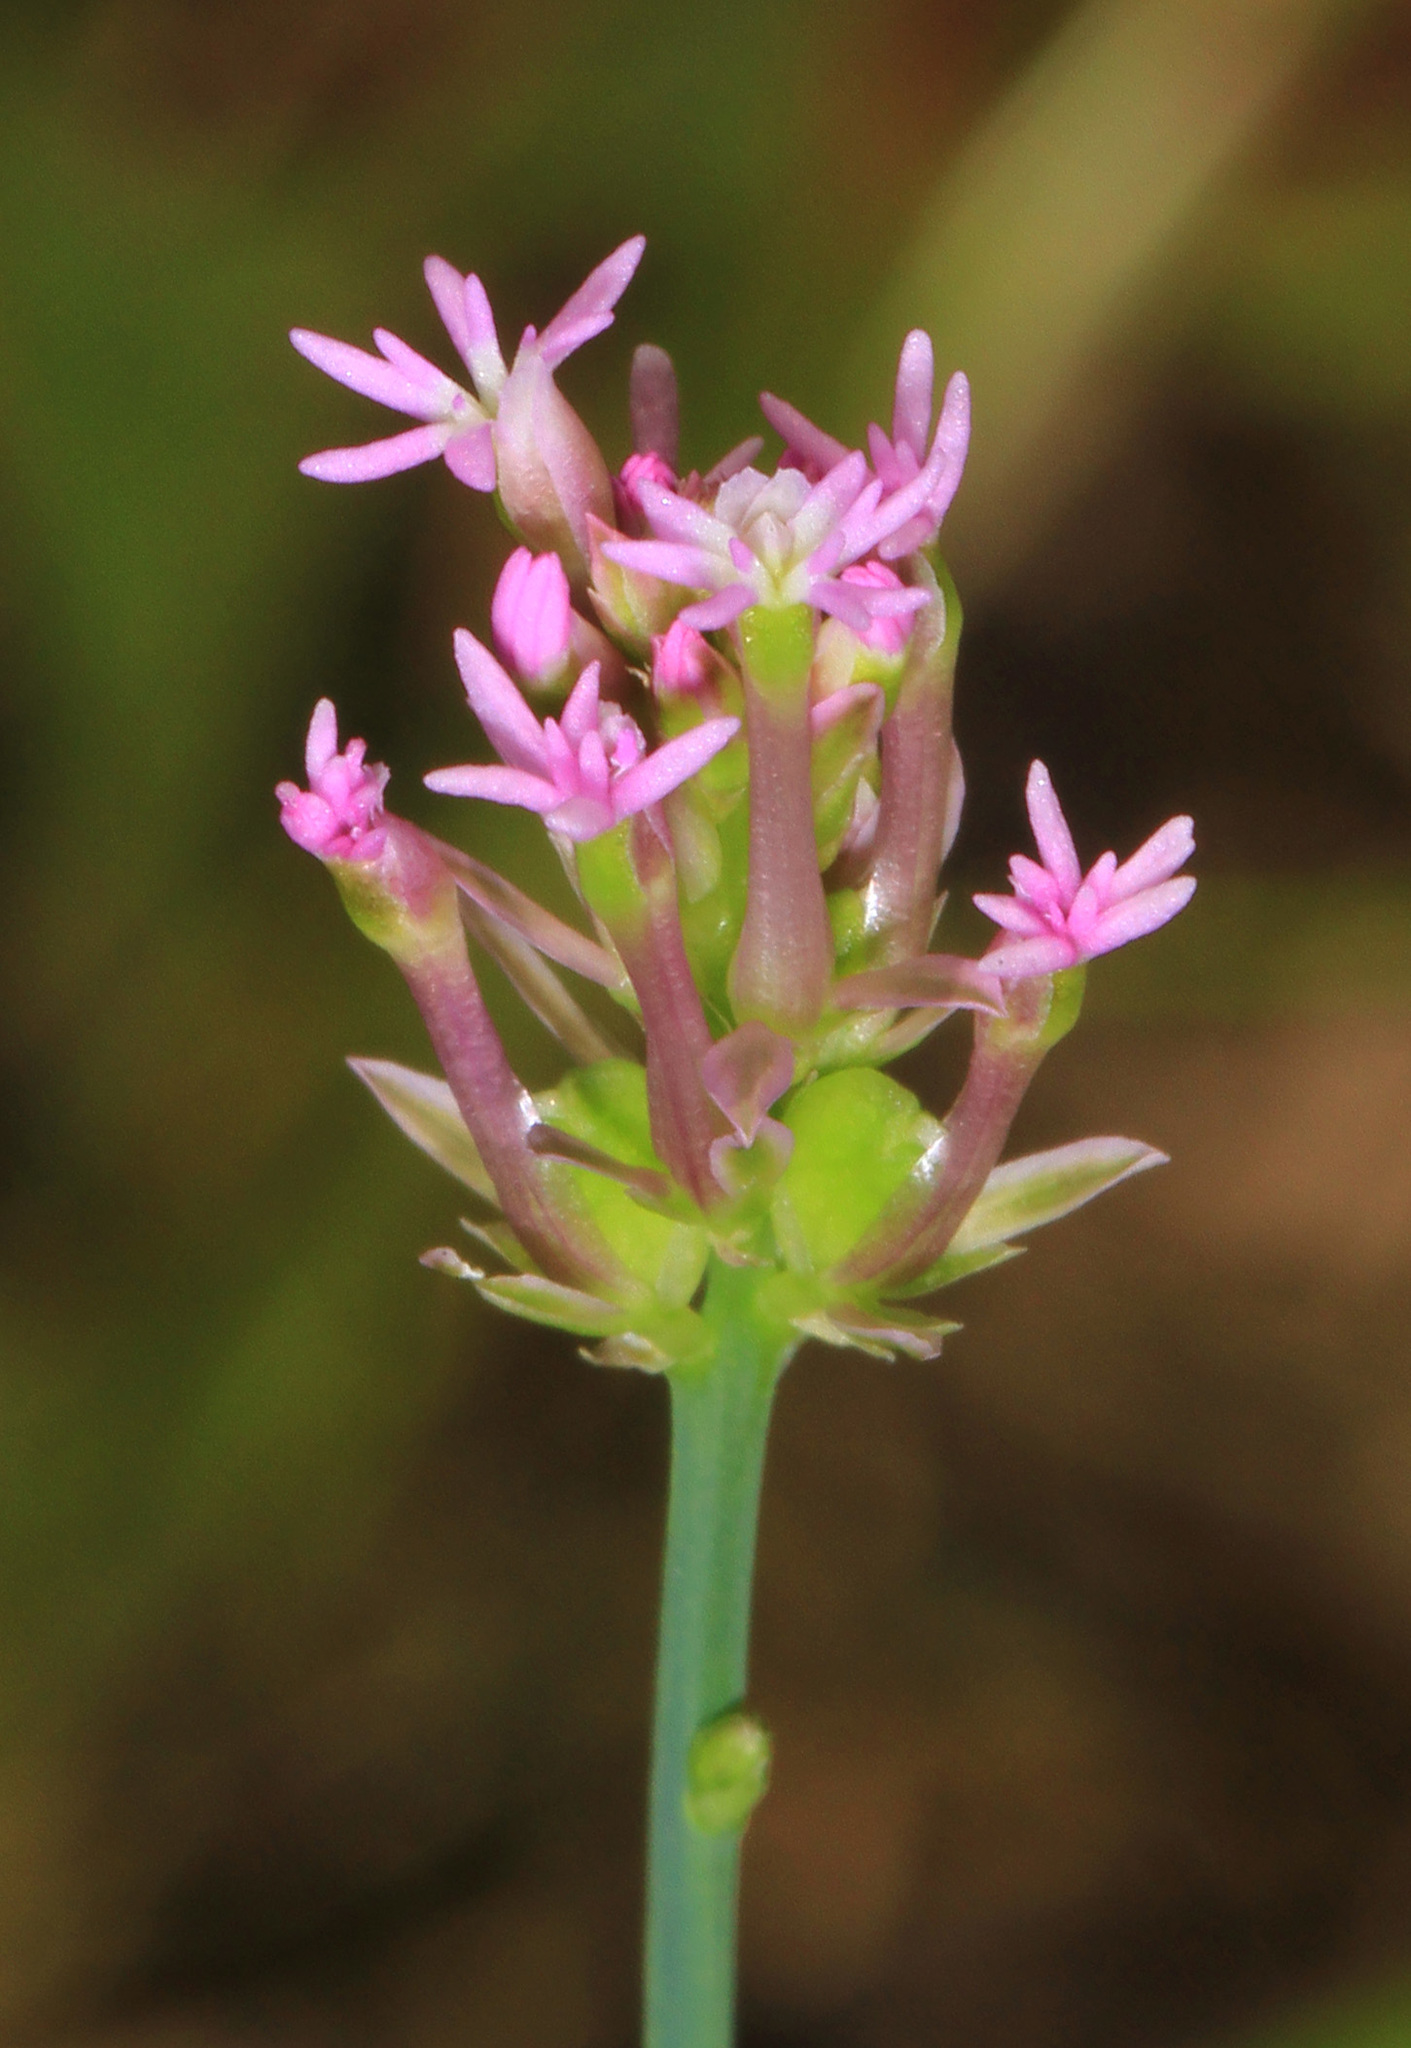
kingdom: Plantae
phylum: Tracheophyta
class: Magnoliopsida
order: Fabales
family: Polygalaceae
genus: Polygala
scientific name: Polygala incarnata
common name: Pink milkwort
